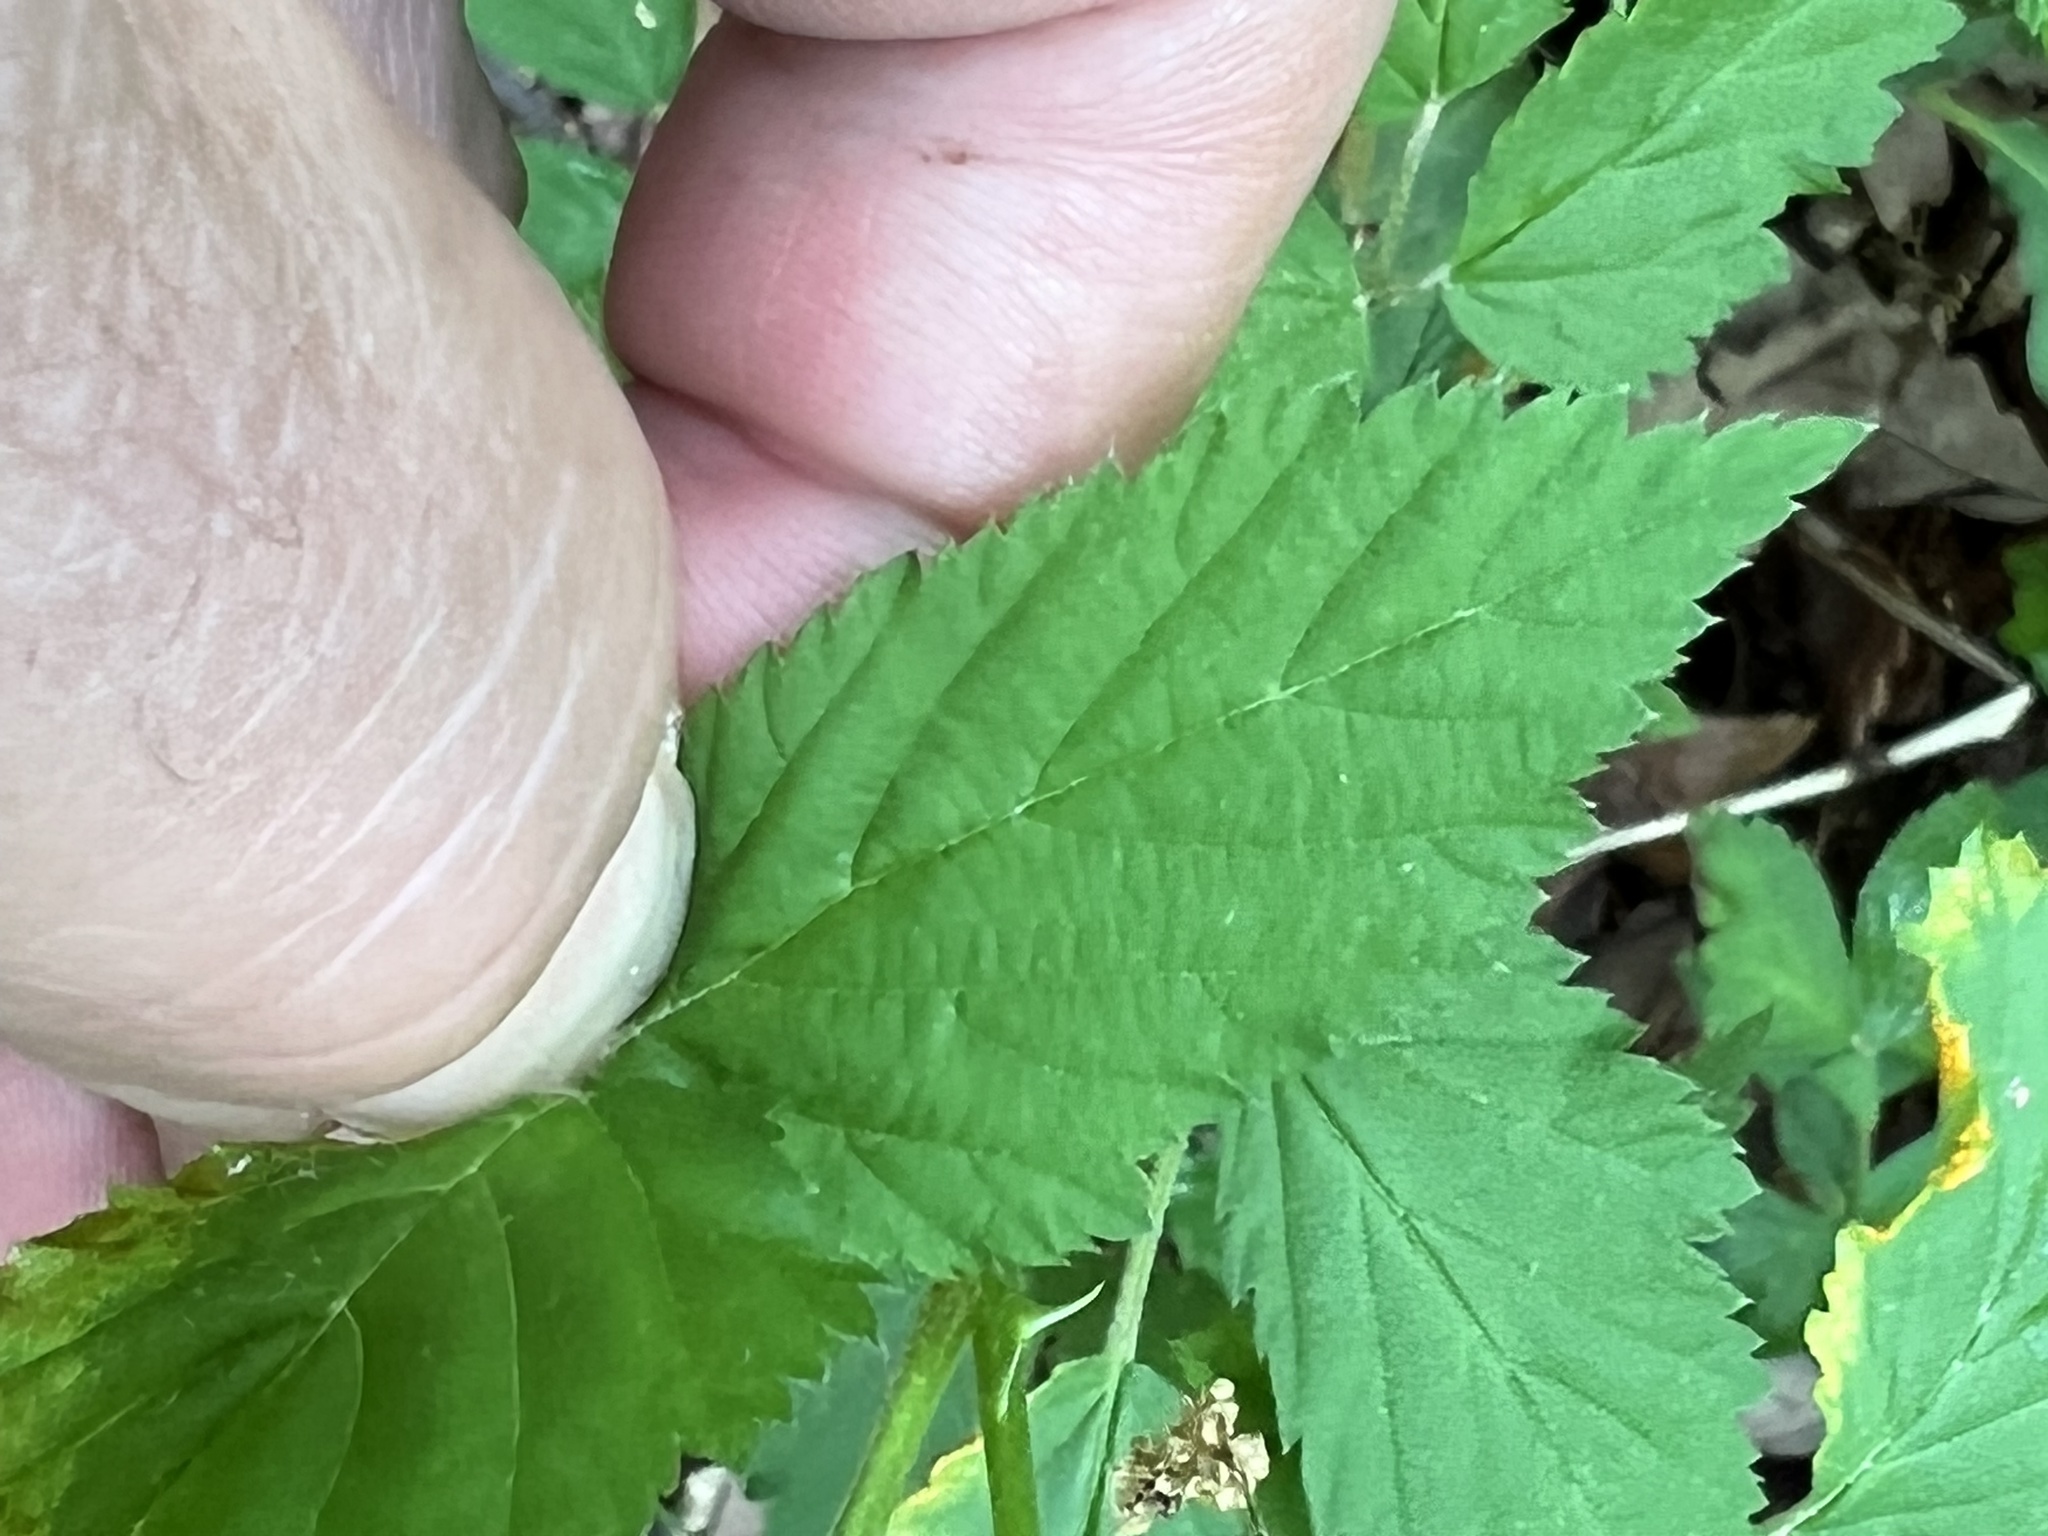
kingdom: Fungi
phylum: Basidiomycota
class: Pucciniomycetes
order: Pucciniales
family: Phragmidiaceae
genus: Arthuriomyces
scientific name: Arthuriomyces peckianus
